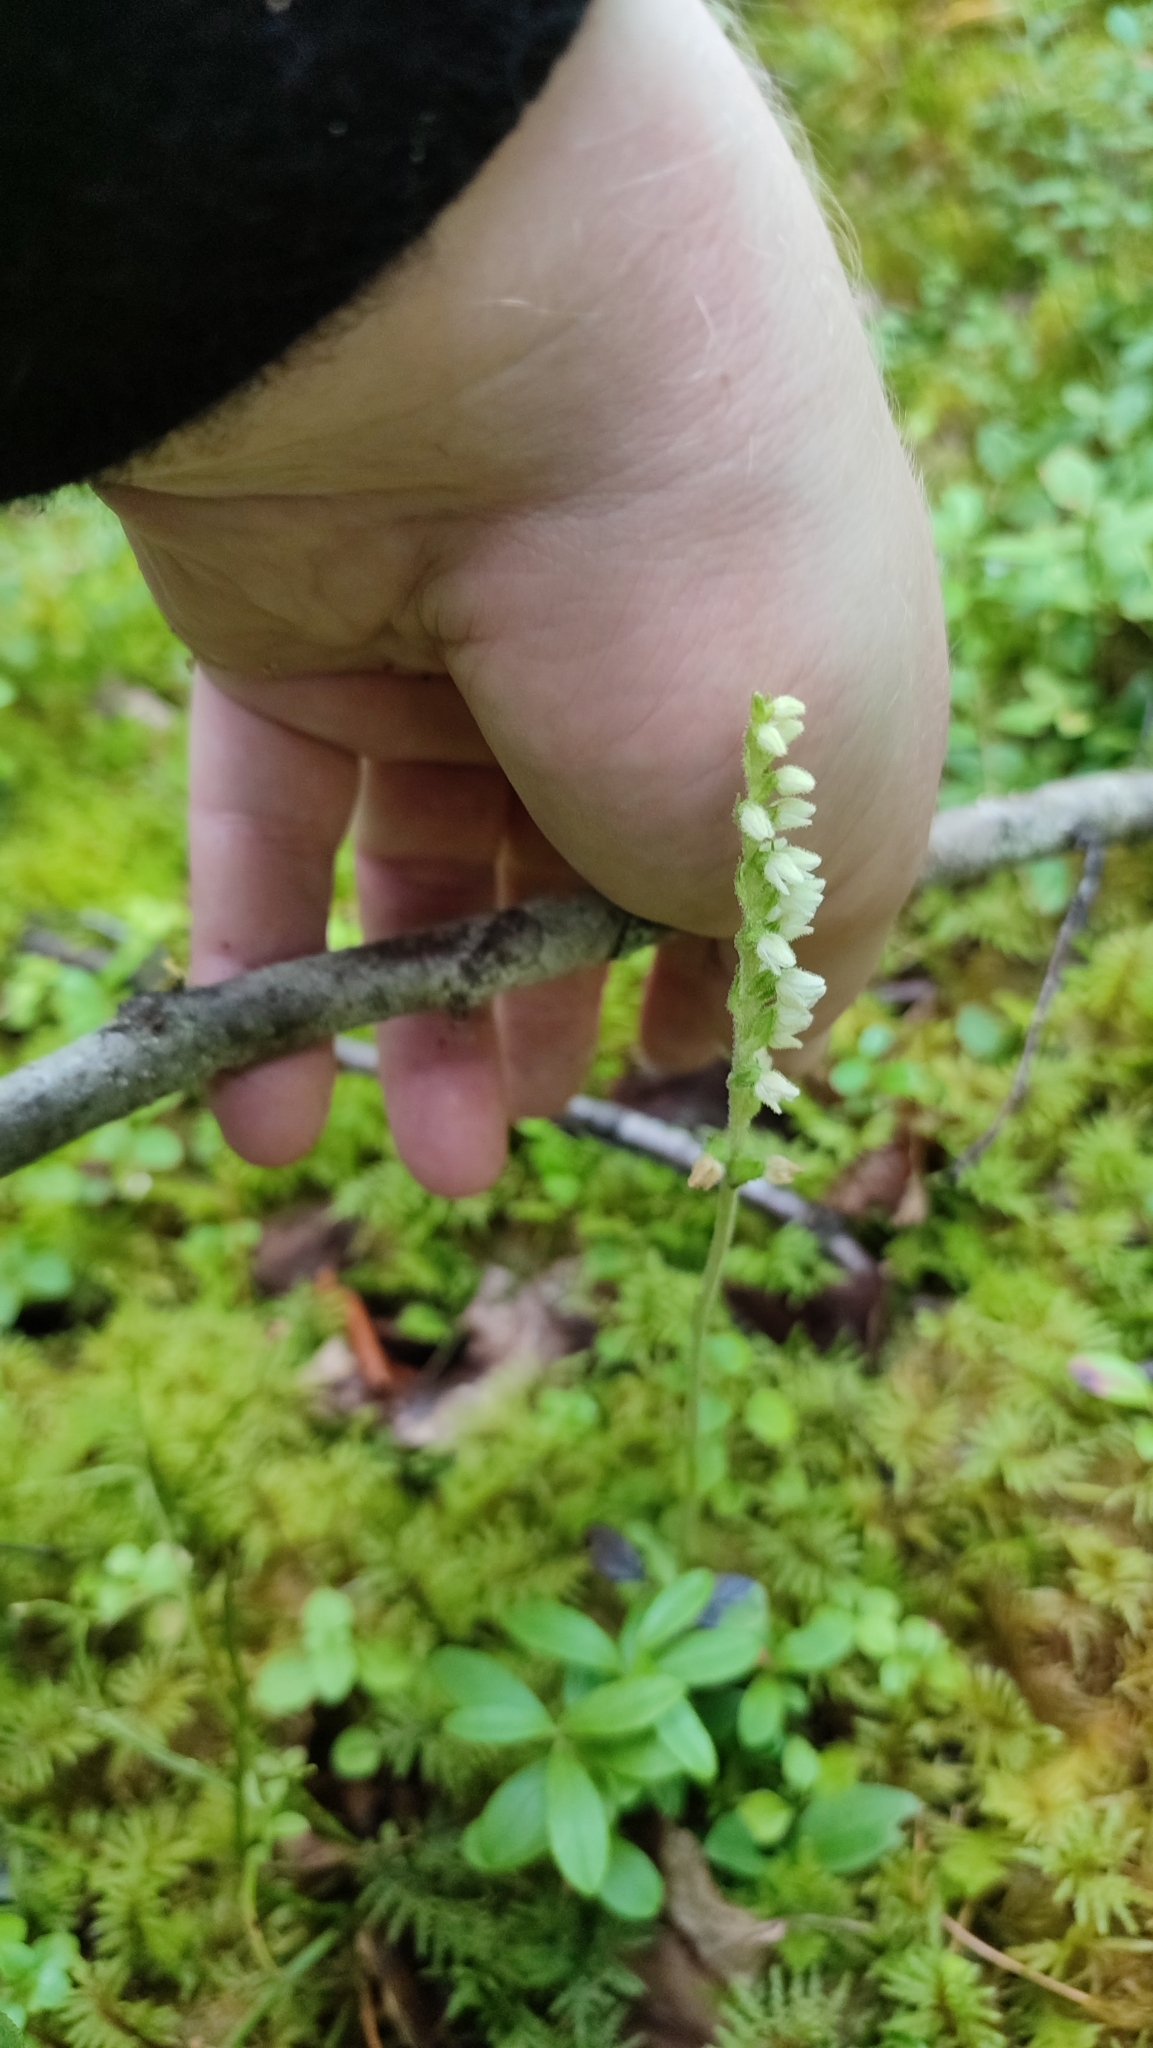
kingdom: Plantae
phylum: Tracheophyta
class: Liliopsida
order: Asparagales
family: Orchidaceae
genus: Goodyera
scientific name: Goodyera repens
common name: Creeping lady's-tresses
